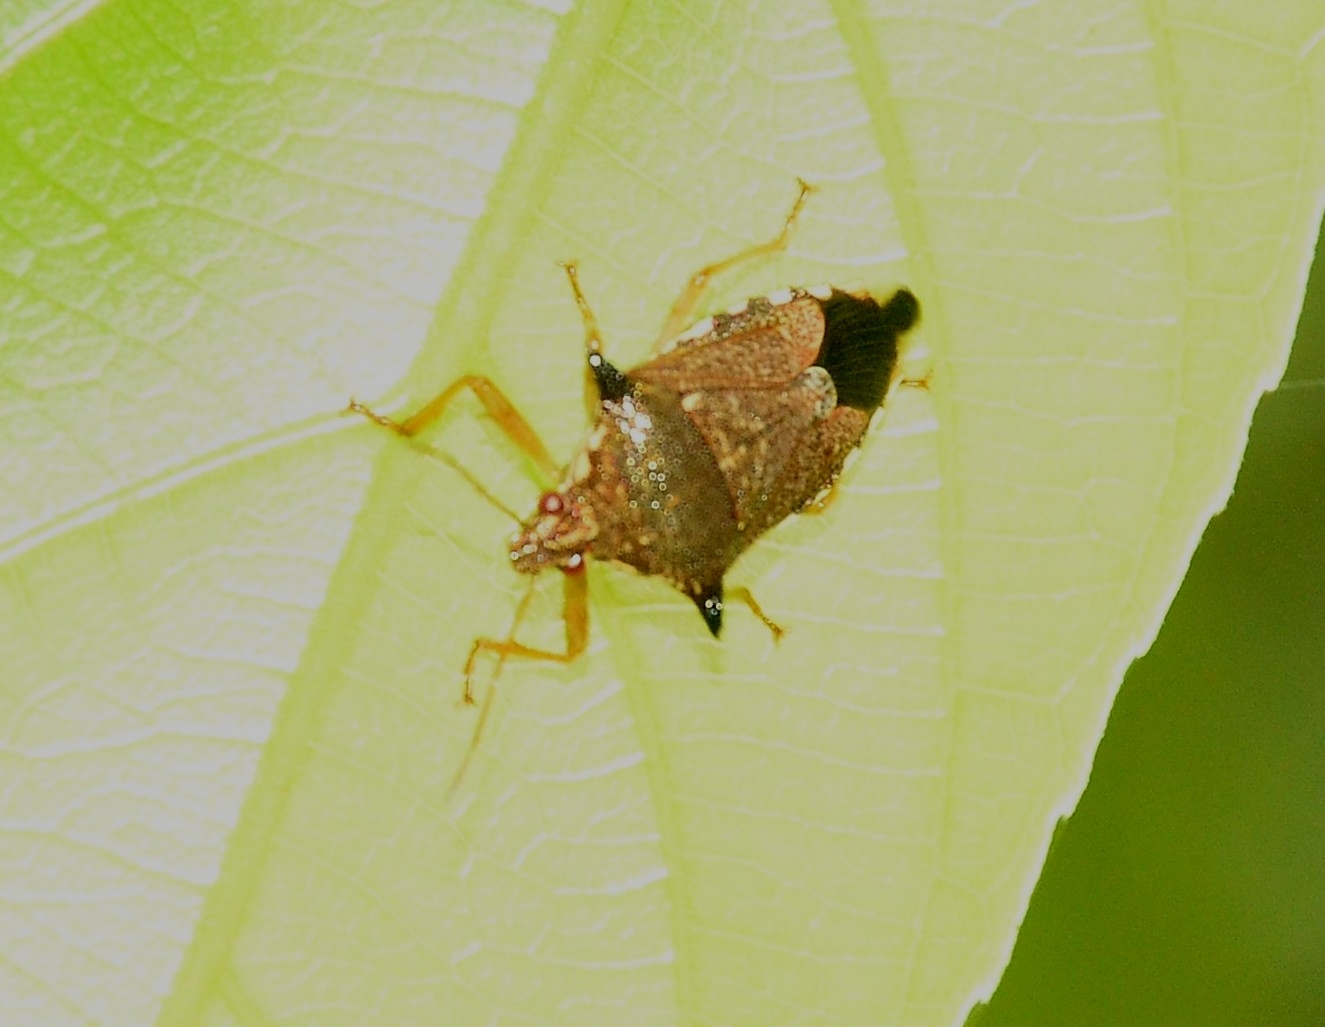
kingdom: Animalia
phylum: Arthropoda
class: Insecta
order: Hemiptera
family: Pentatomidae
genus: Eocanthecona
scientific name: Eocanthecona
